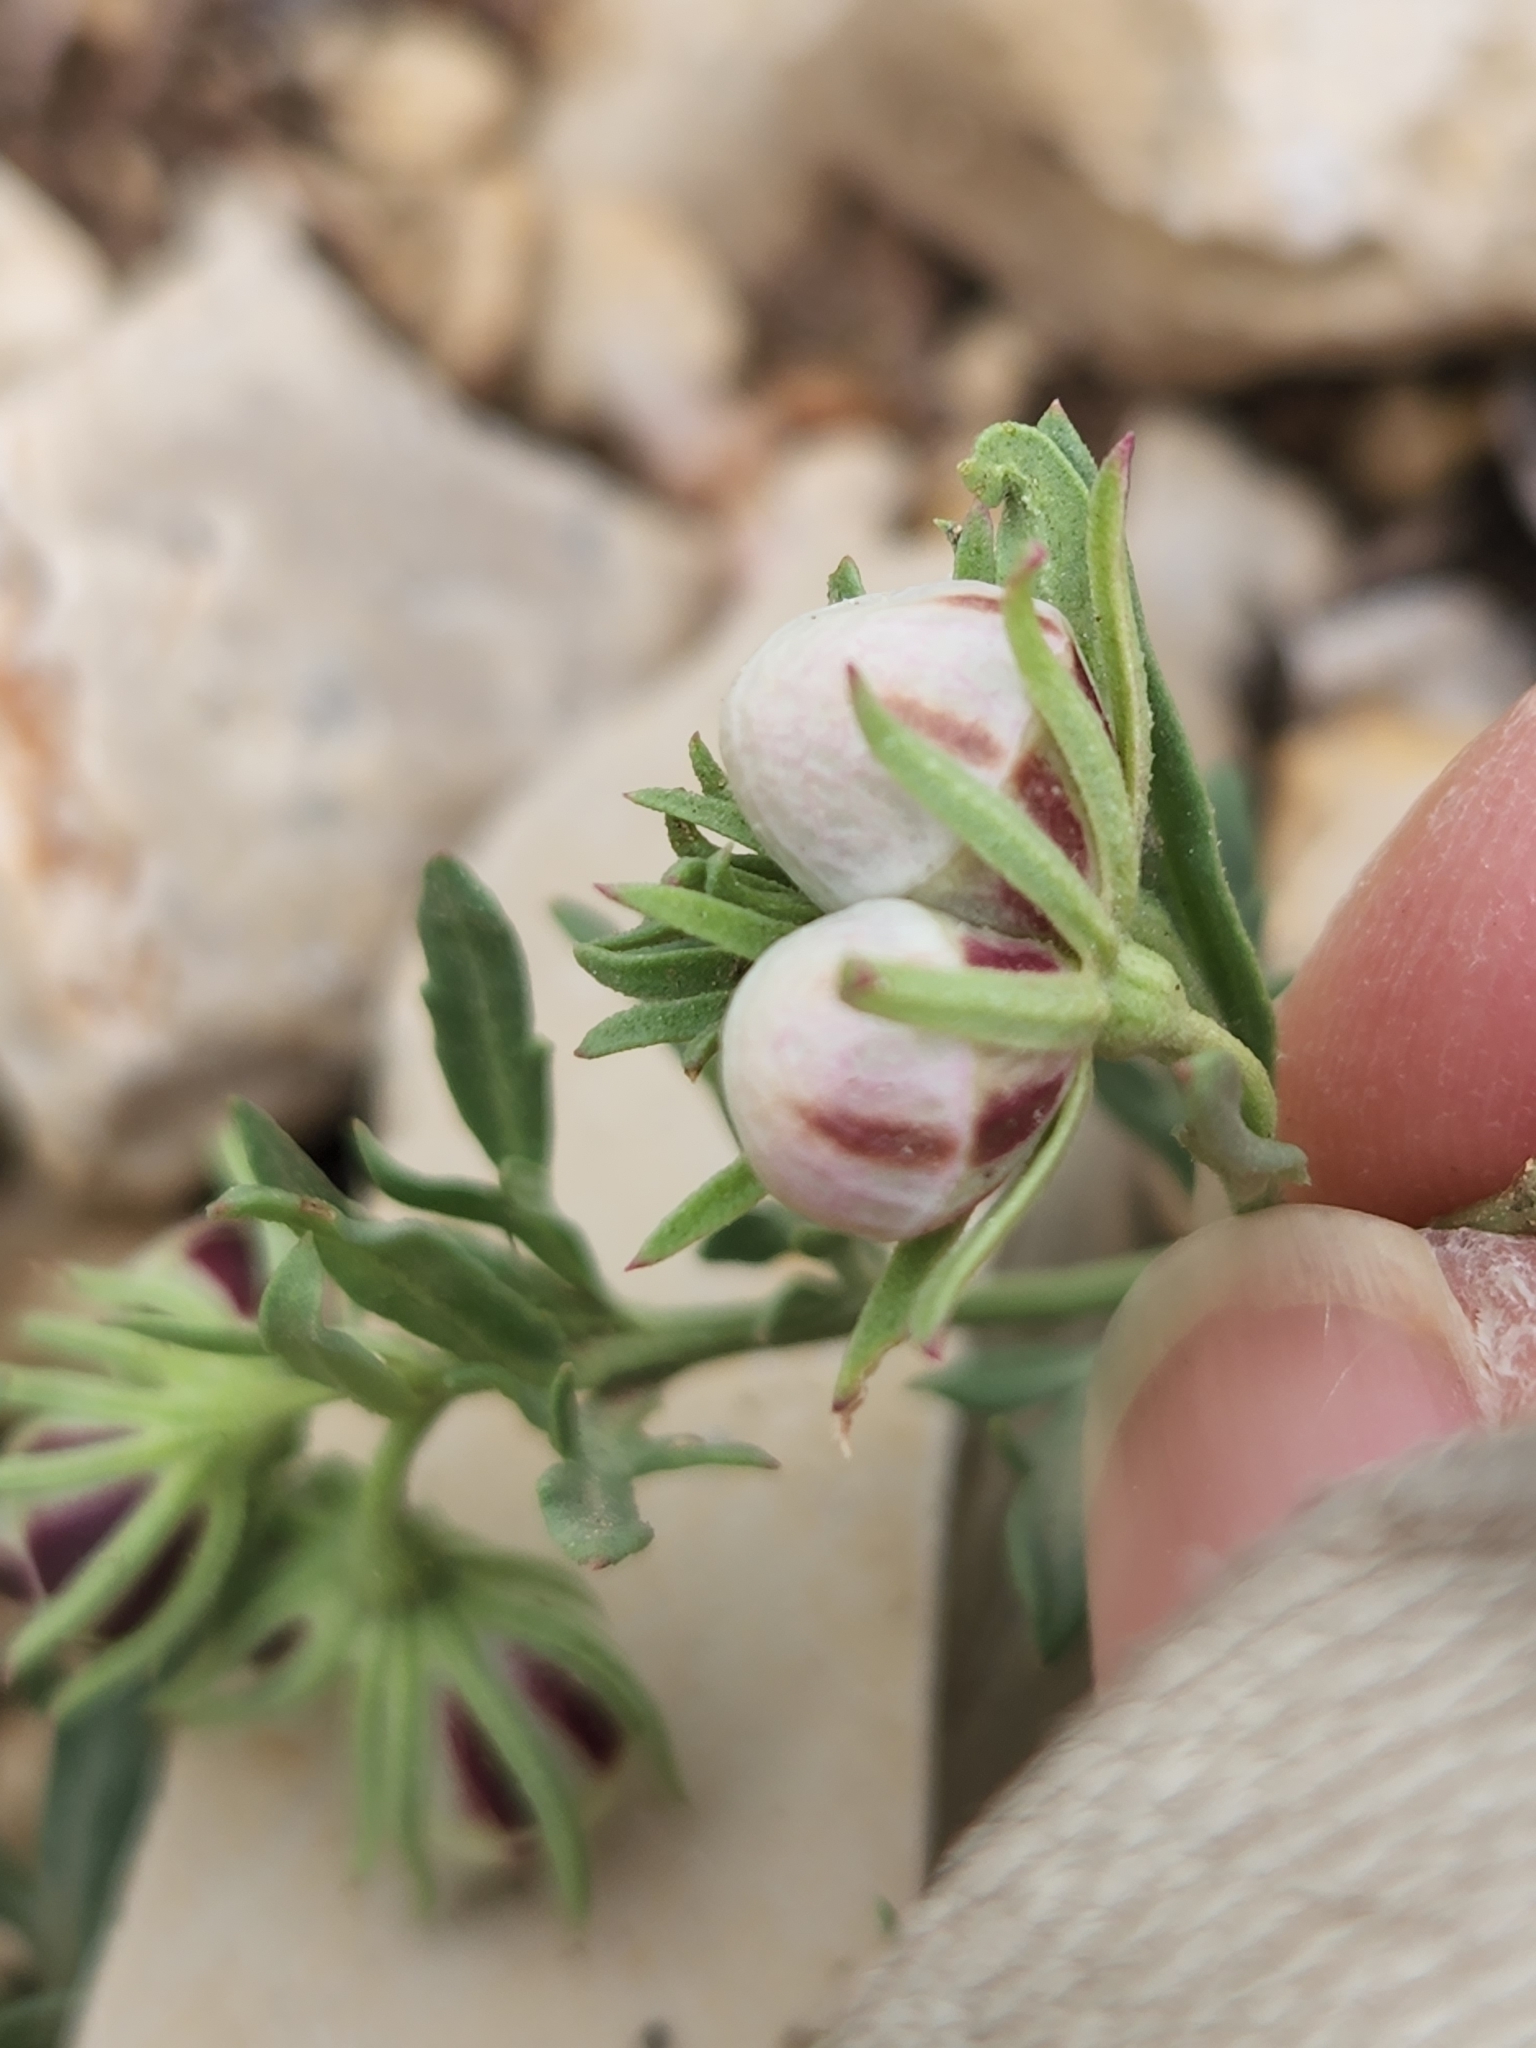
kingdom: Plantae
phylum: Tracheophyta
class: Magnoliopsida
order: Lamiales
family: Oleaceae
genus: Menodora
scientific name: Menodora heterophylla
